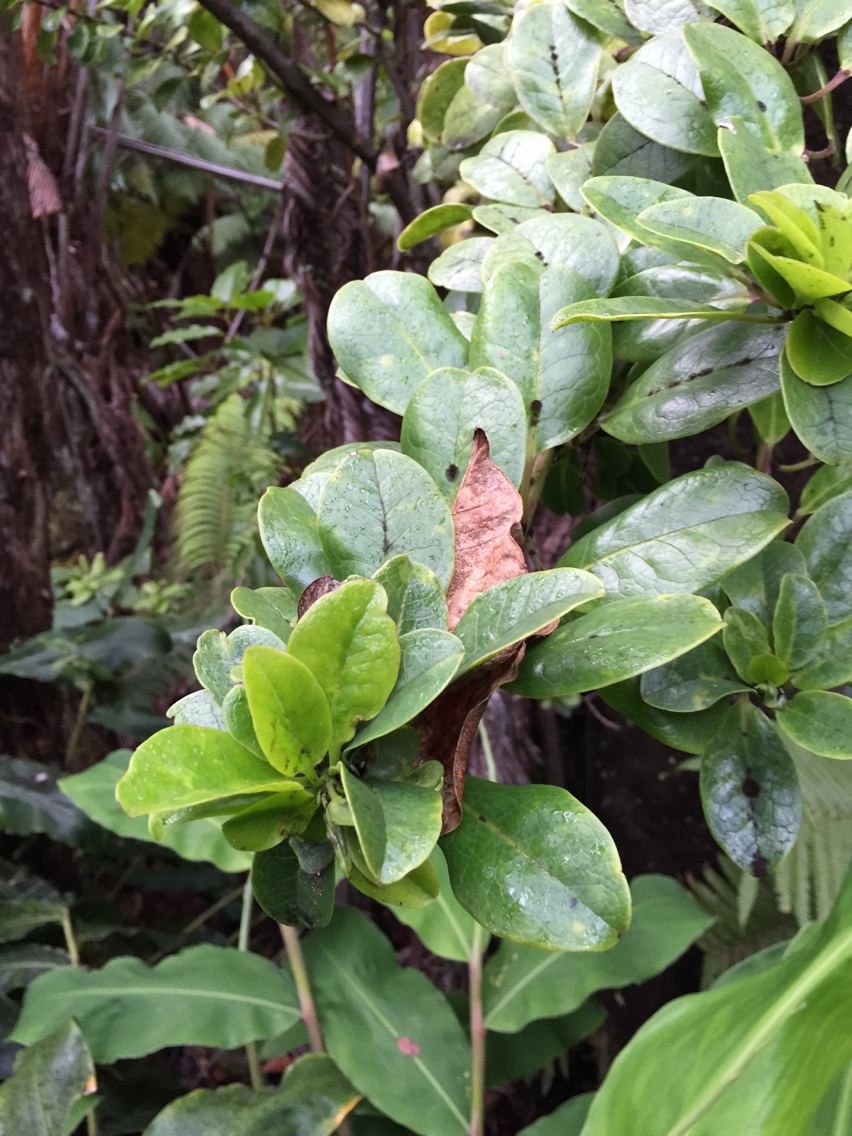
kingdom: Plantae
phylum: Tracheophyta
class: Magnoliopsida
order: Aquifoliales
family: Aquifoliaceae
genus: Ilex
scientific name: Ilex anomala
